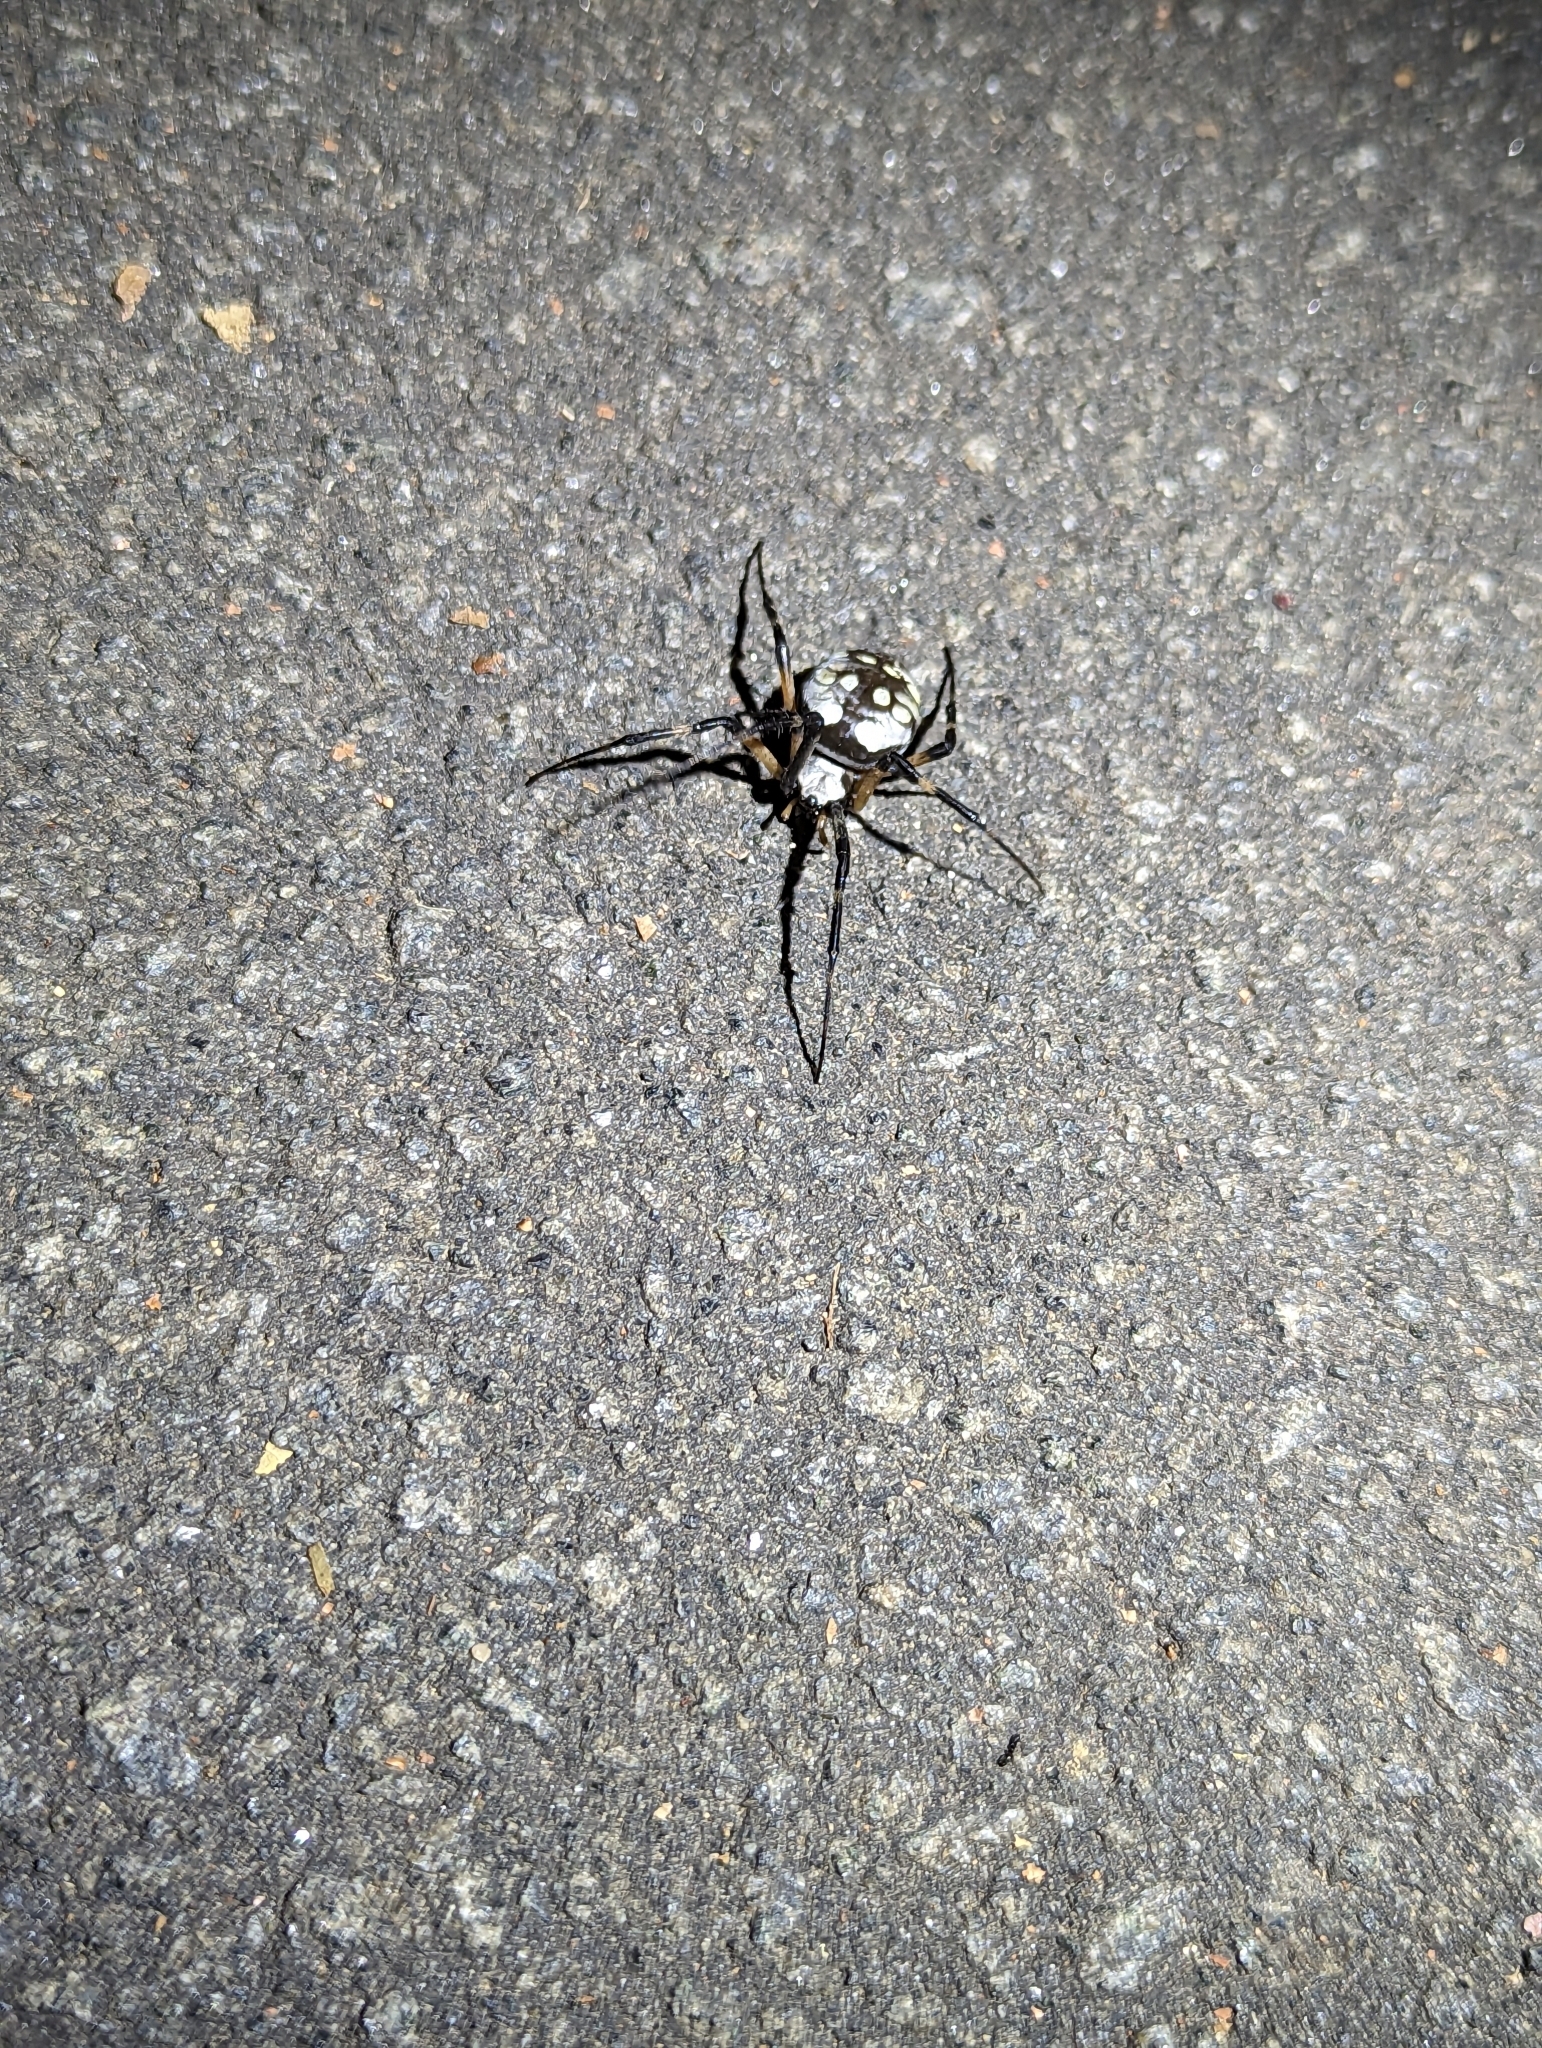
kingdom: Animalia
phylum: Arthropoda
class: Arachnida
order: Araneae
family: Araneidae
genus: Argiope
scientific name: Argiope aurantia
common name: Orb weavers
